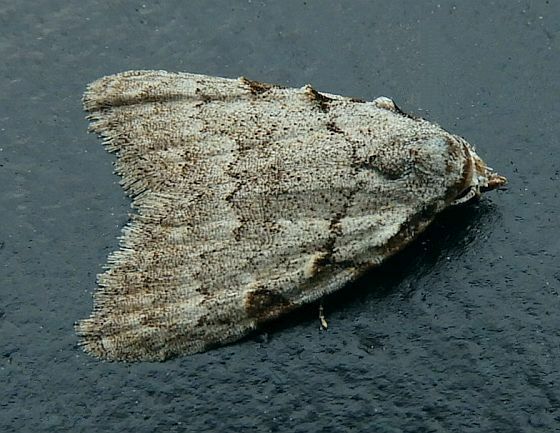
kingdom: Animalia
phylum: Arthropoda
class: Insecta
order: Lepidoptera
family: Nolidae
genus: Nola
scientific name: Nola triquetrana
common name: Three-spotted nola moth
